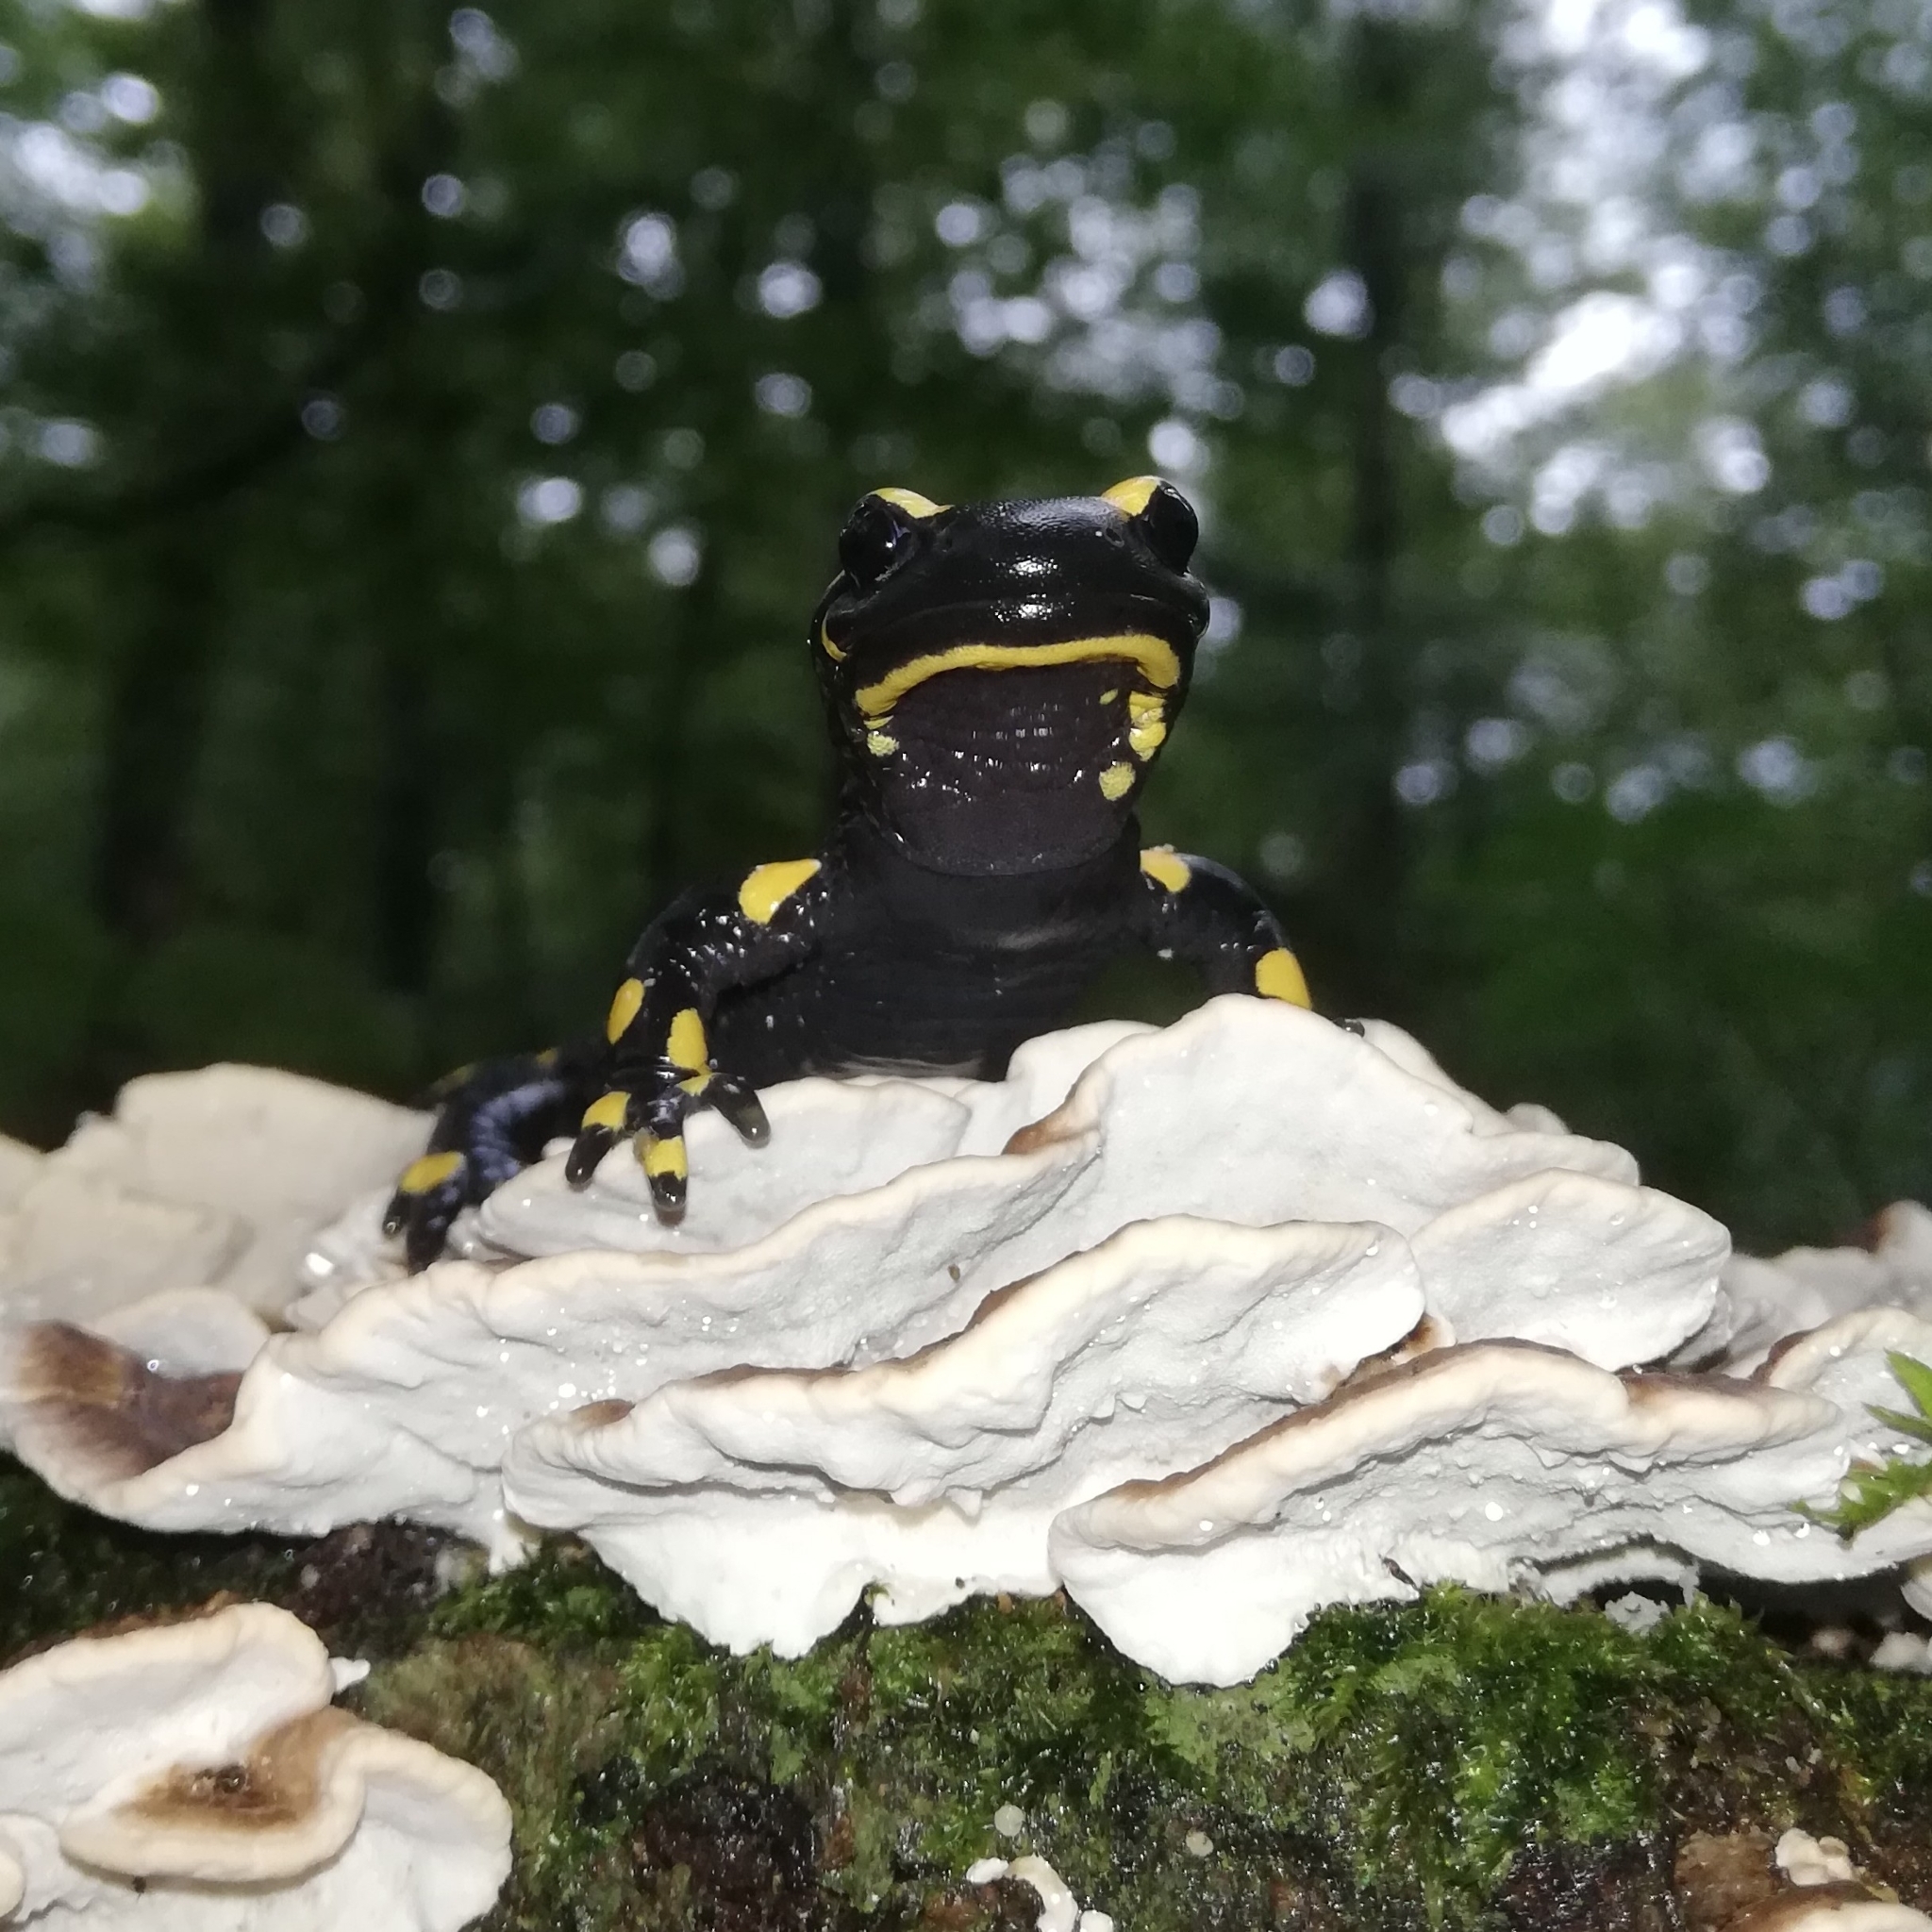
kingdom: Animalia
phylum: Chordata
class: Amphibia
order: Caudata
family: Salamandridae
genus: Salamandra
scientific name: Salamandra salamandra
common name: Fire salamander
